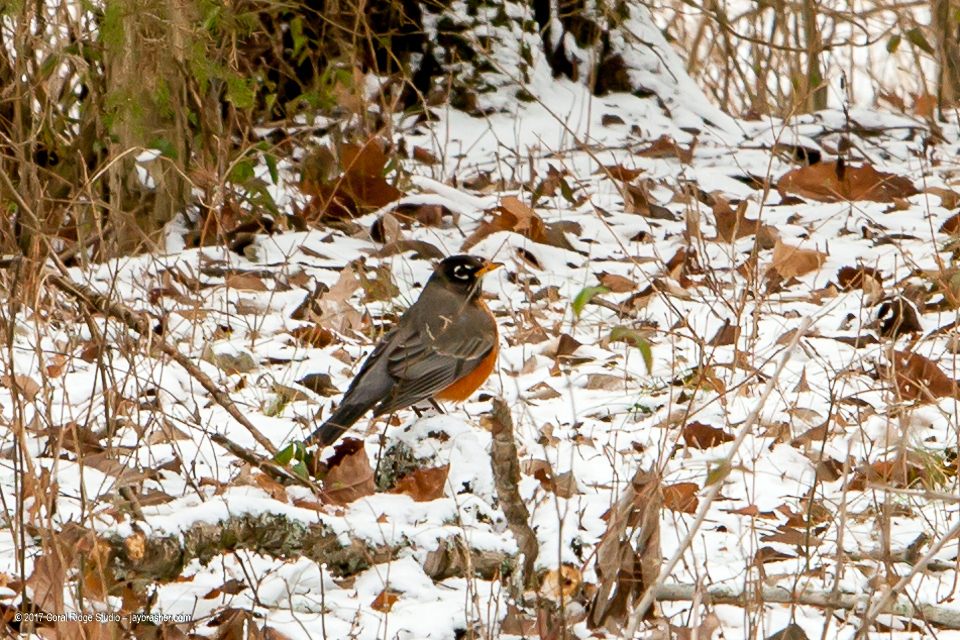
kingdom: Animalia
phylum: Chordata
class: Aves
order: Passeriformes
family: Turdidae
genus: Turdus
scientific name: Turdus migratorius
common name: American robin
